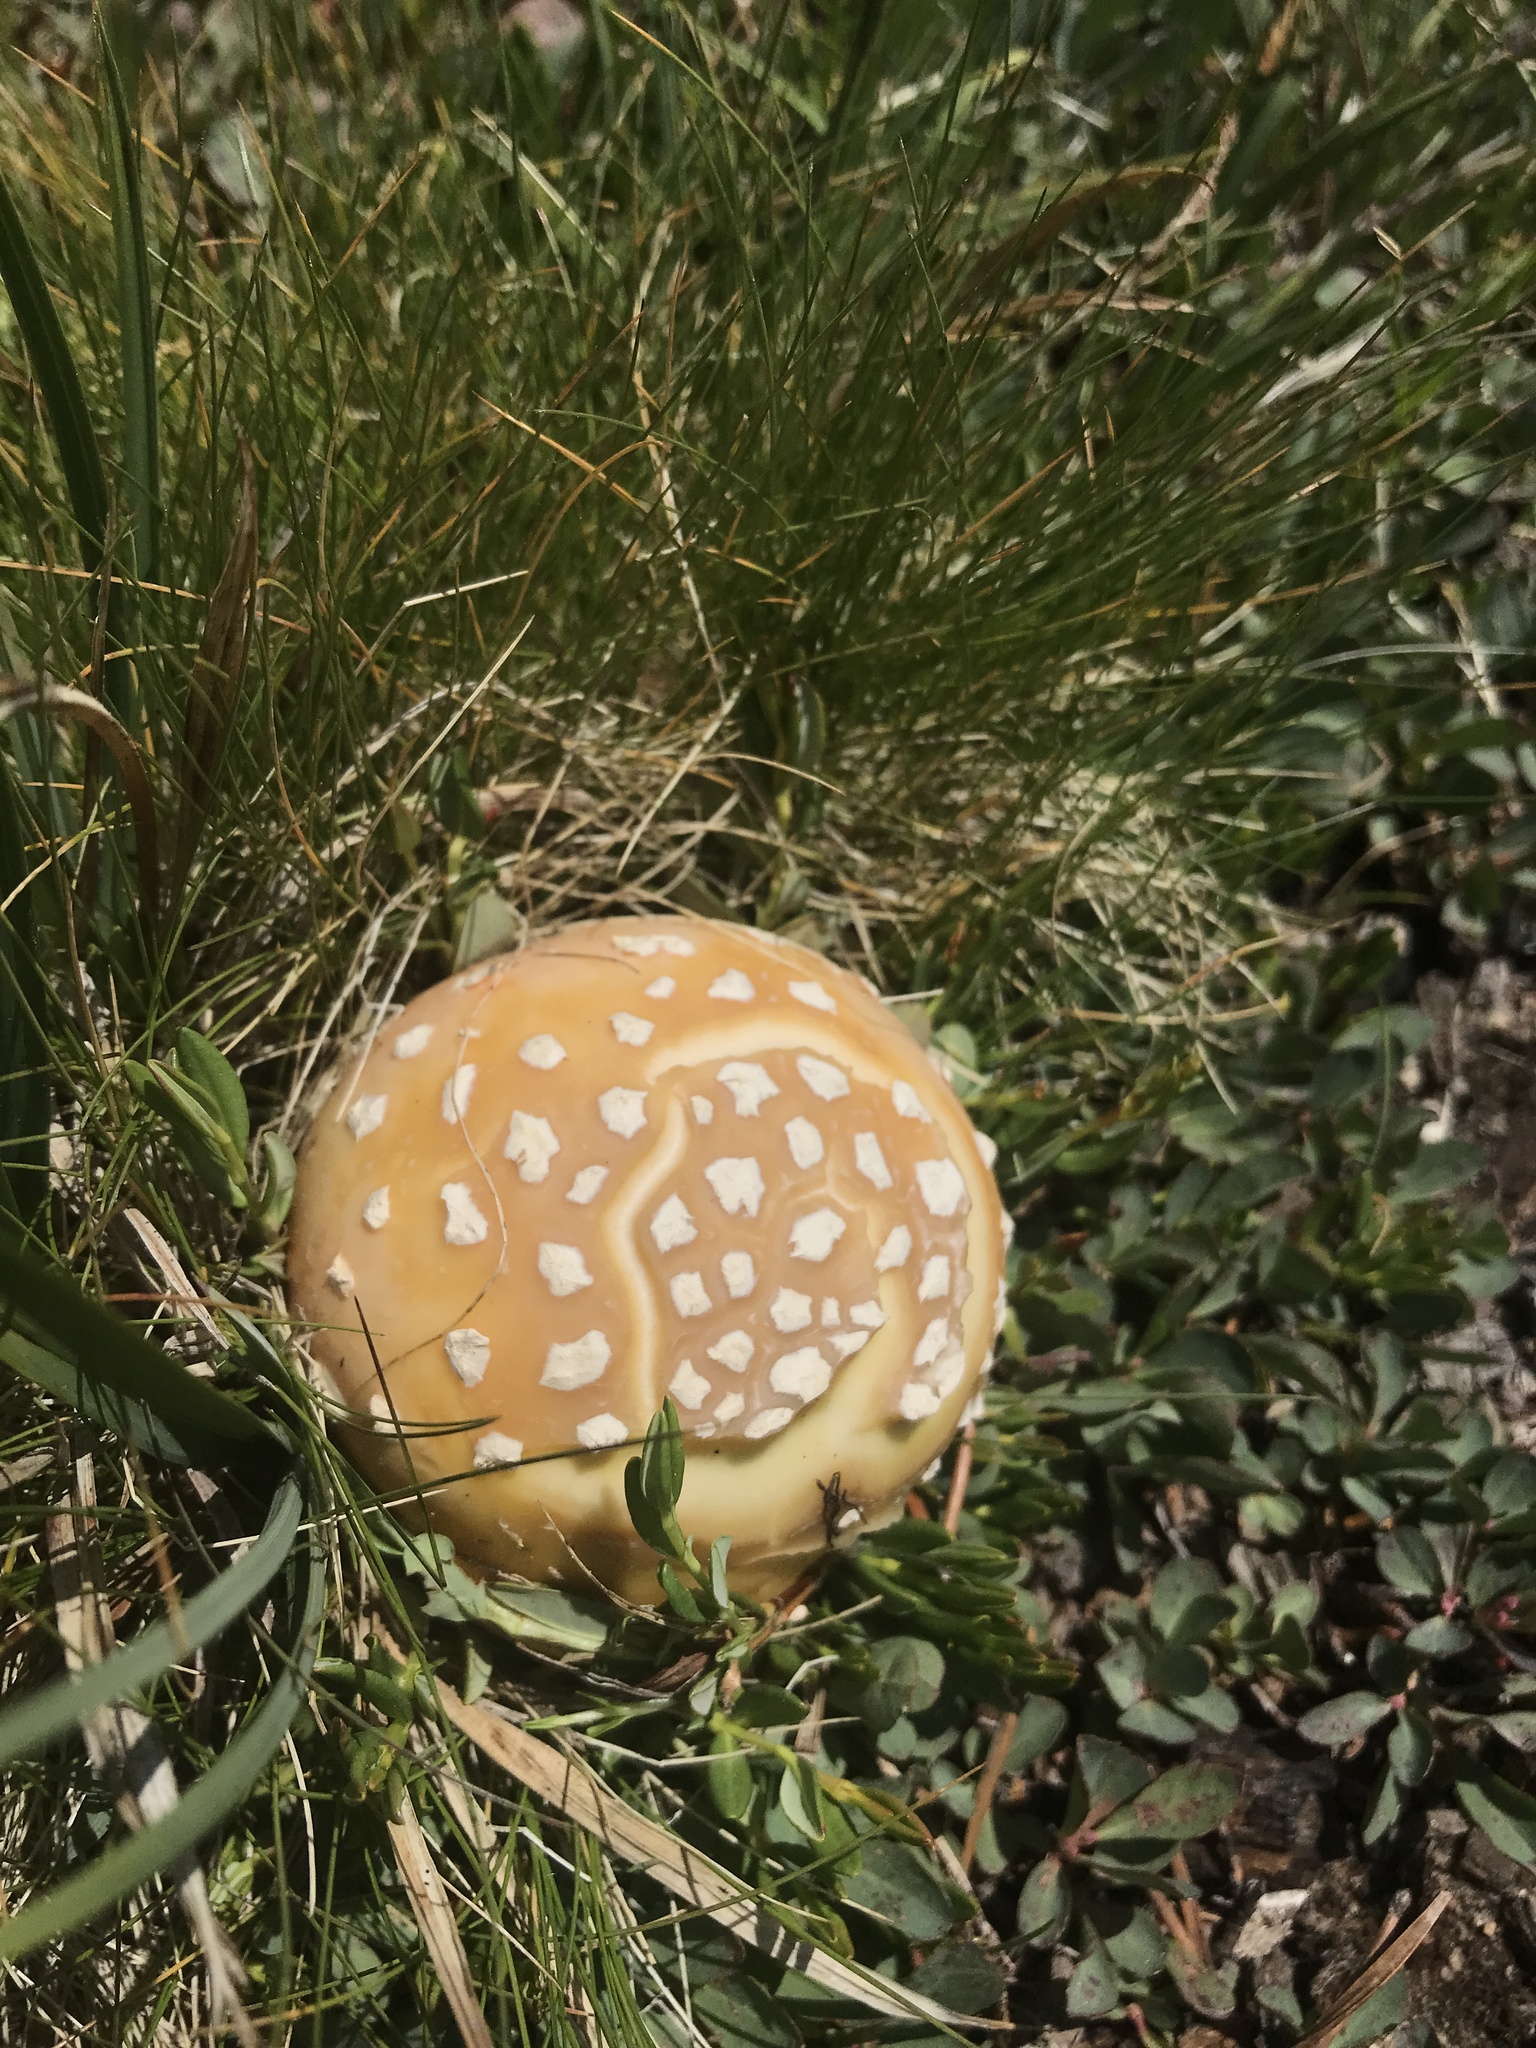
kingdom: Fungi
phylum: Basidiomycota
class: Agaricomycetes
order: Agaricales
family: Amanitaceae
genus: Amanita
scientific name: Amanita muscaria
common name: Fly agaric
